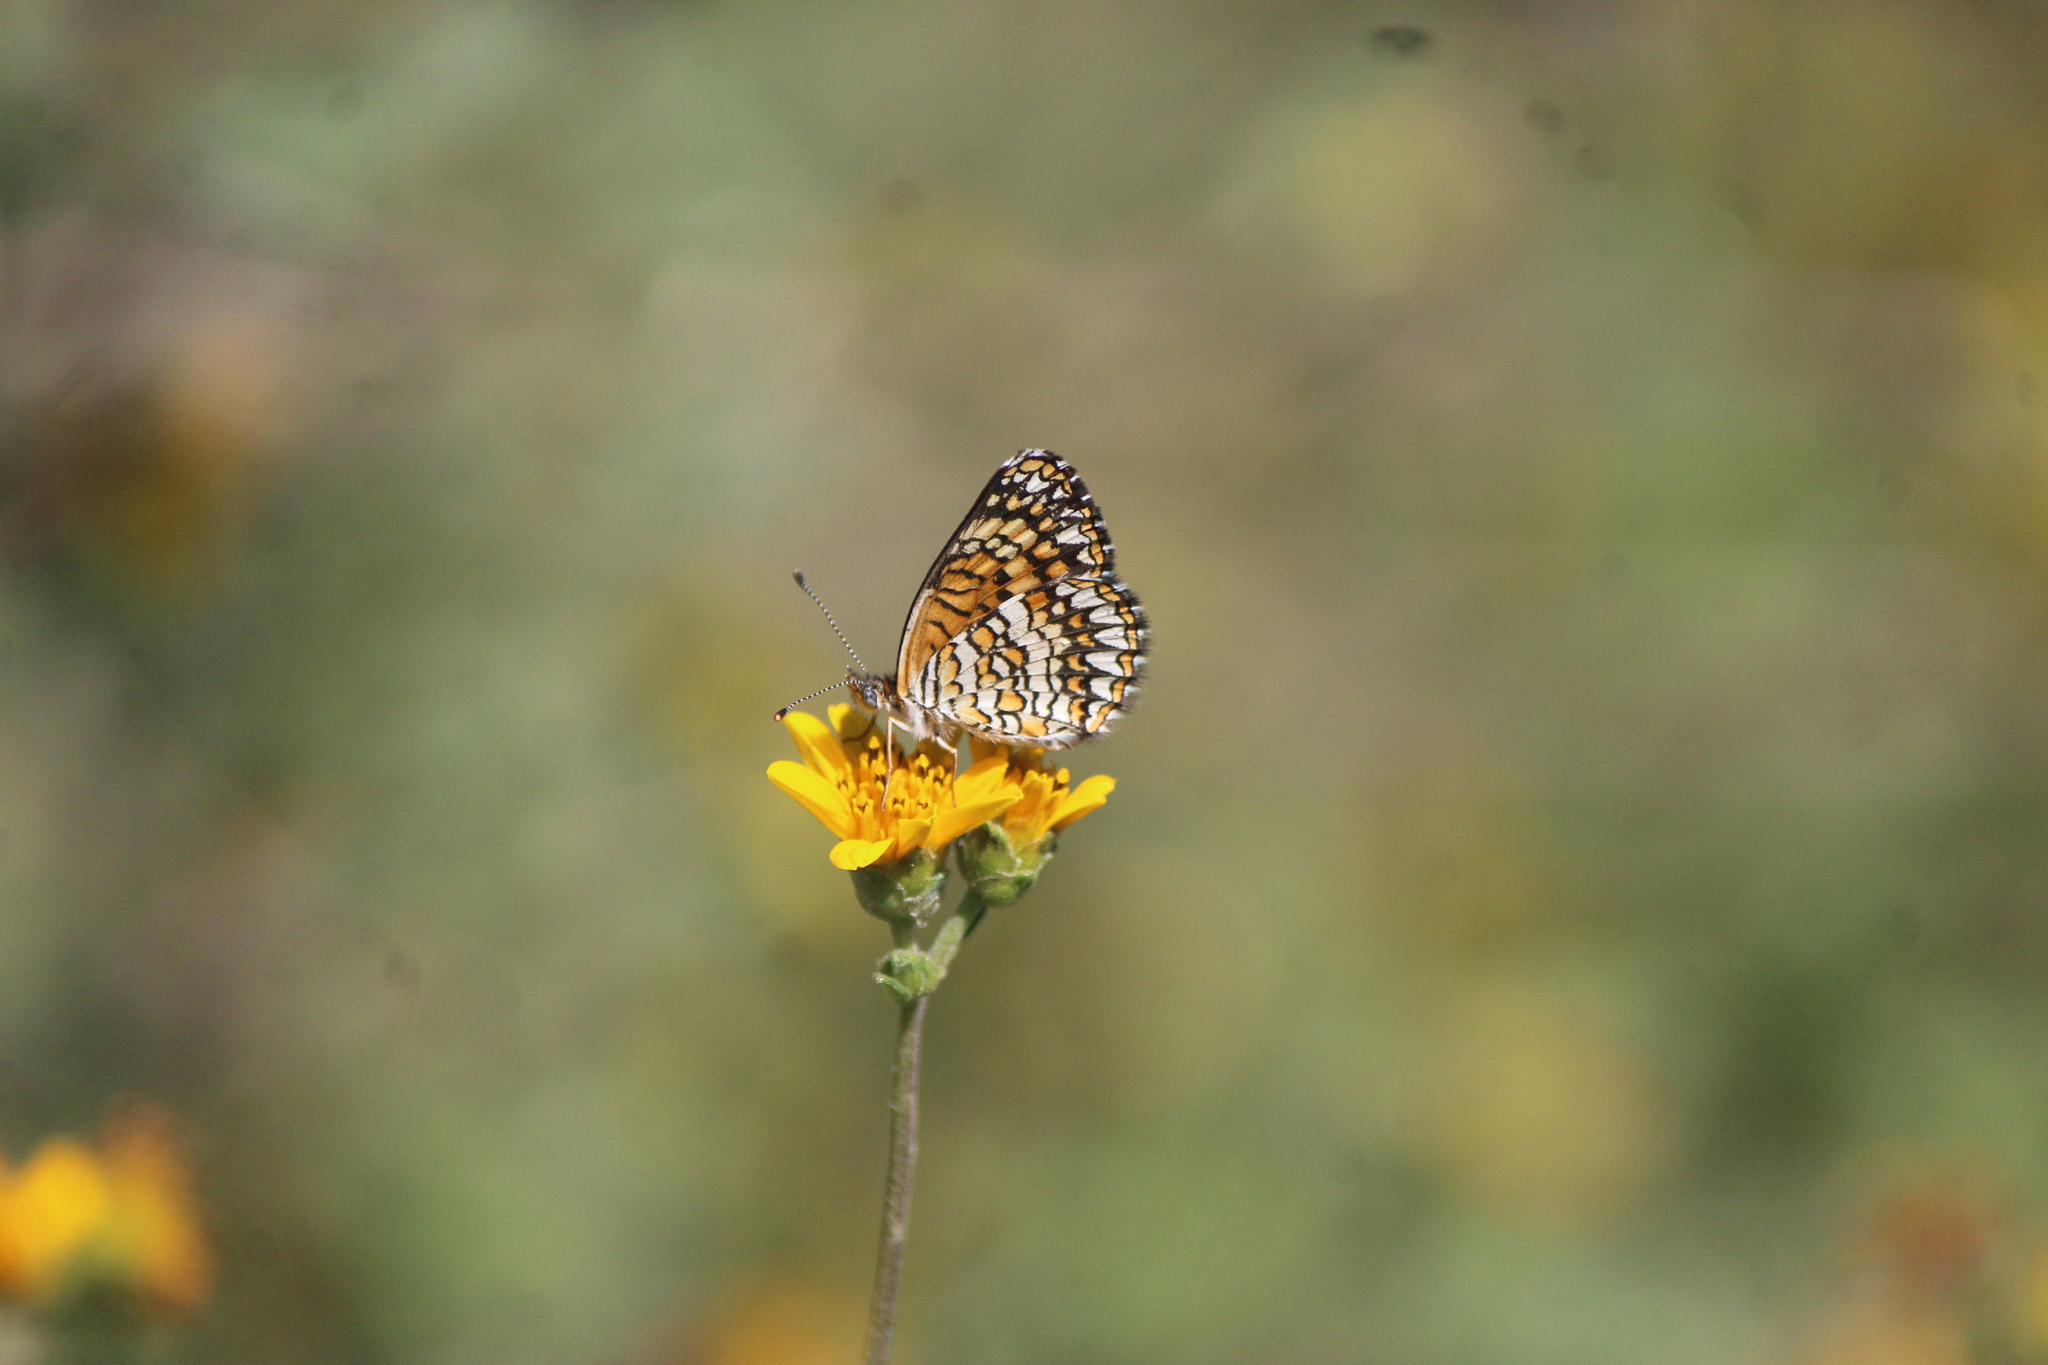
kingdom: Animalia
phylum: Arthropoda
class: Insecta
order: Lepidoptera
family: Nymphalidae
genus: Texola
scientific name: Texola elada
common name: Elada checkerspot
